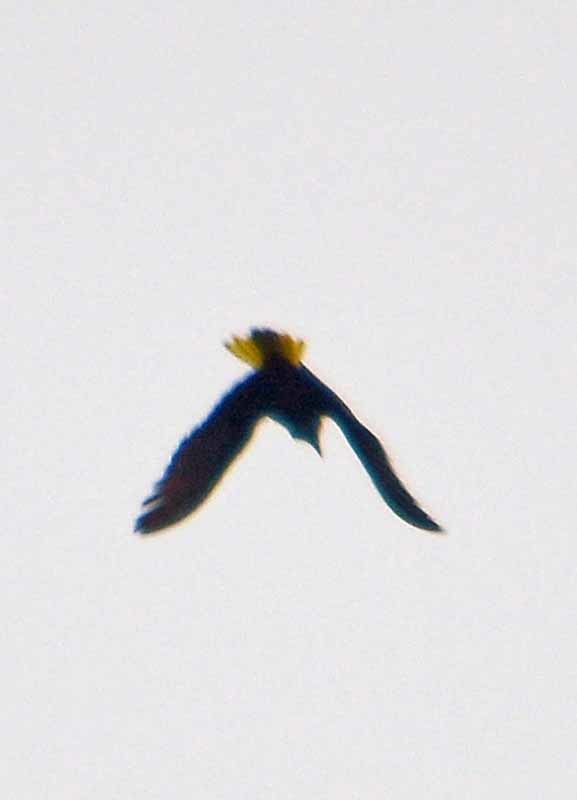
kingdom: Animalia
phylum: Chordata
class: Aves
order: Passeriformes
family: Icteridae
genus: Psarocolius
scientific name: Psarocolius montezuma
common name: Montezuma oropendola
